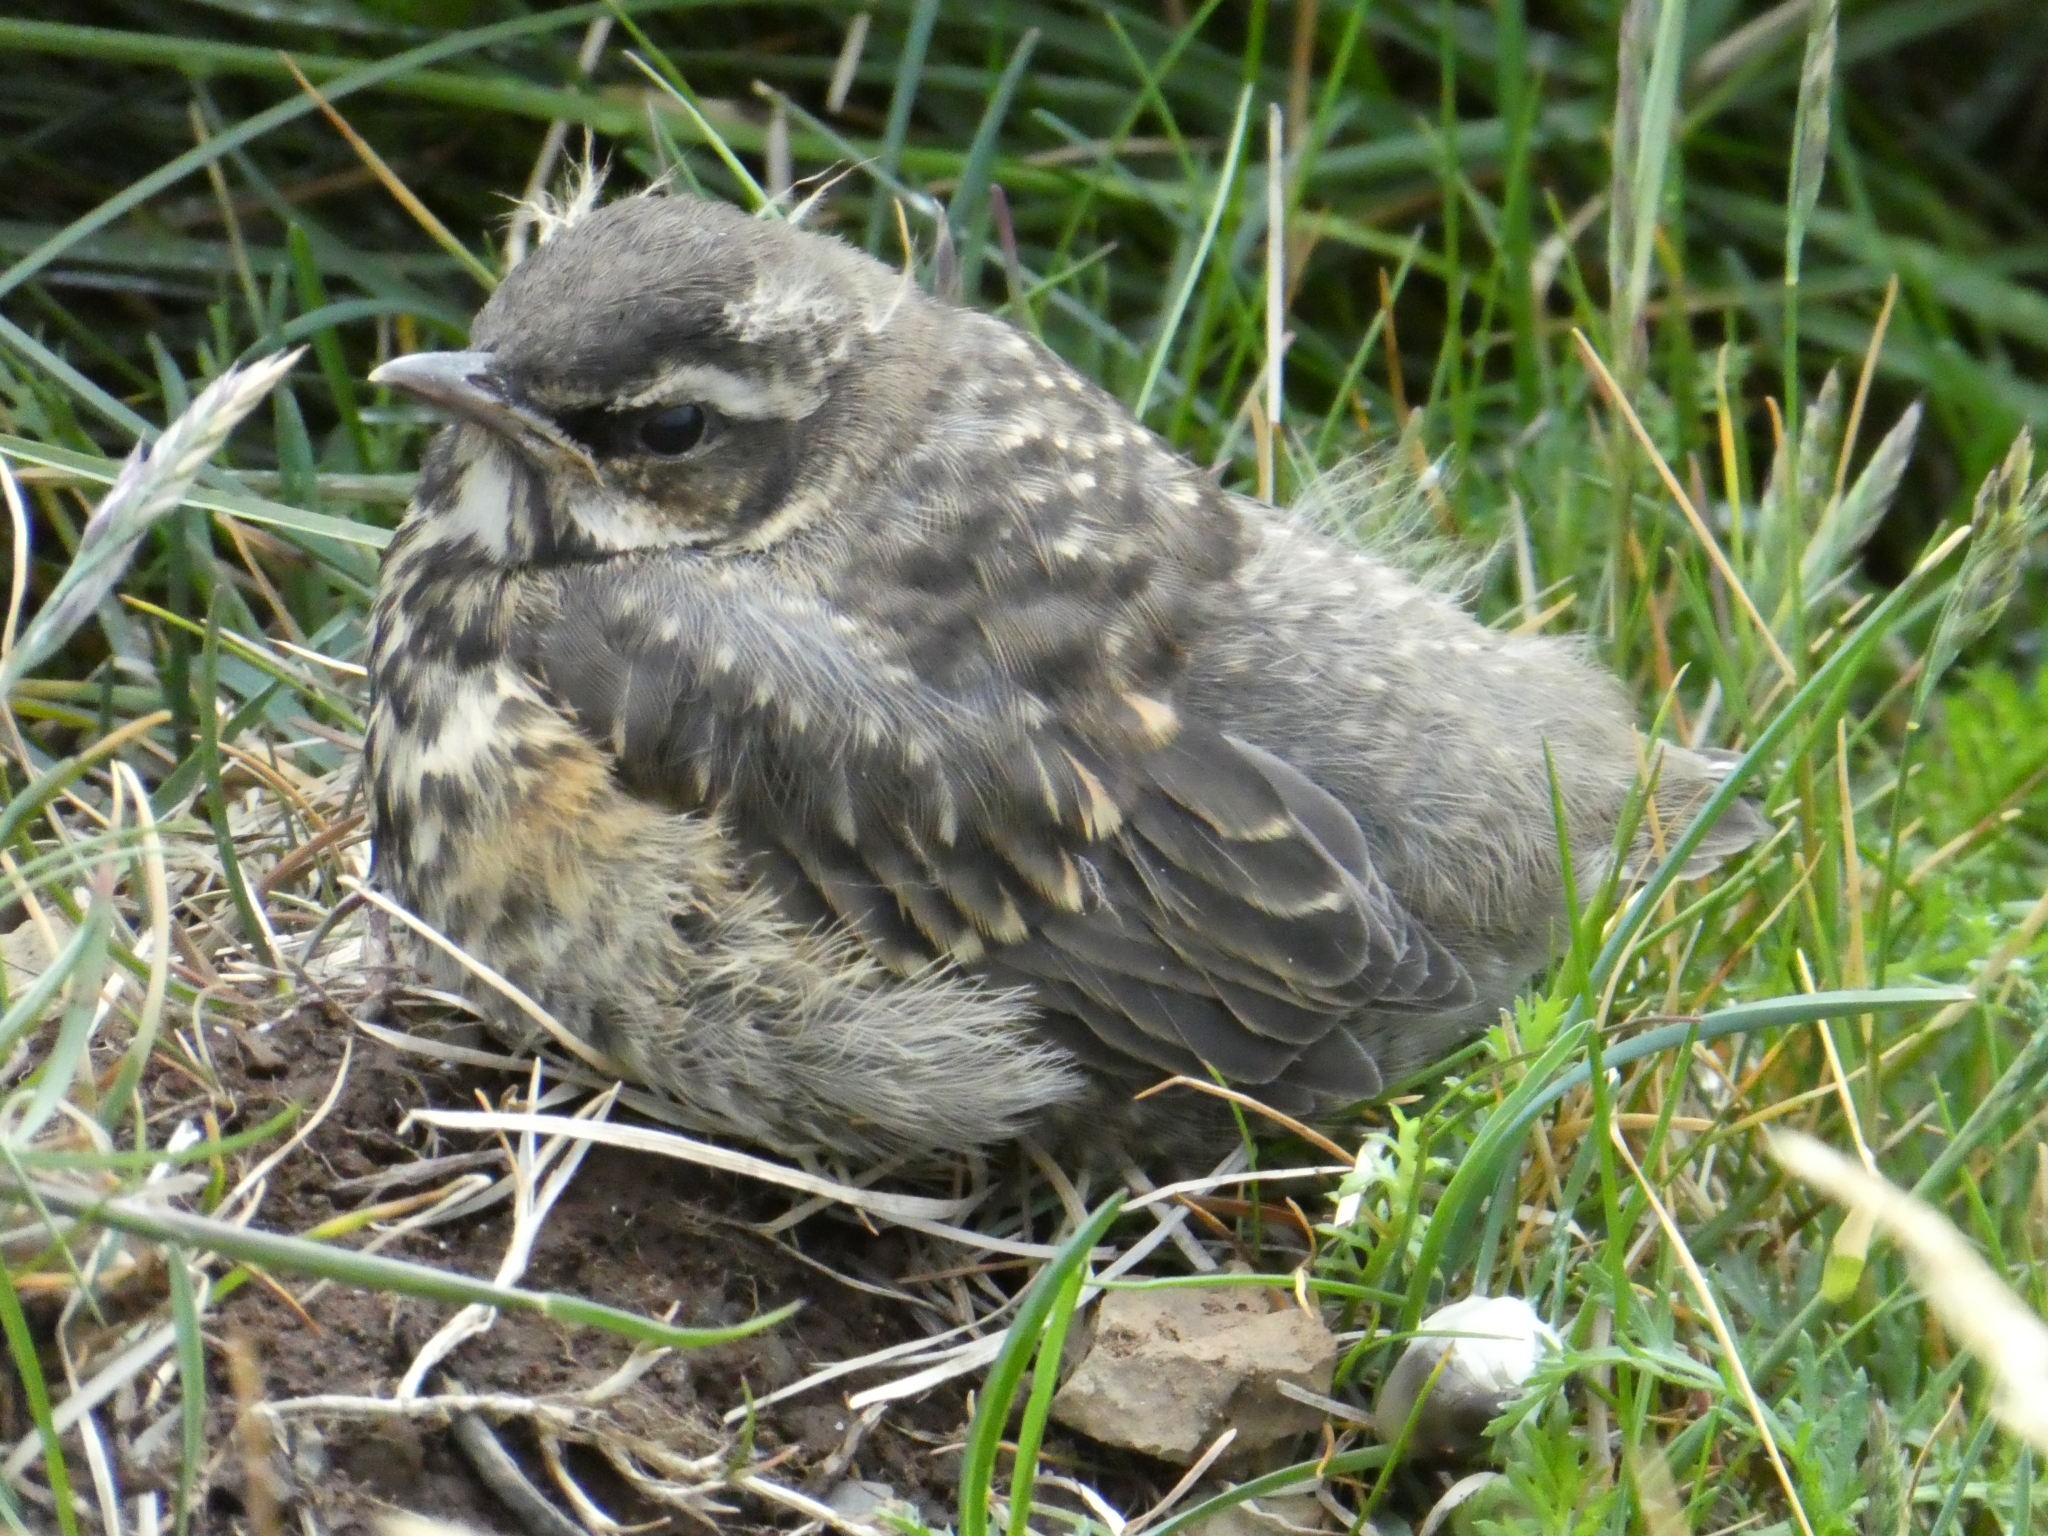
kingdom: Animalia
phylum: Chordata
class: Aves
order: Passeriformes
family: Turdidae
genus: Turdus
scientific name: Turdus iliacus
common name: Redwing
